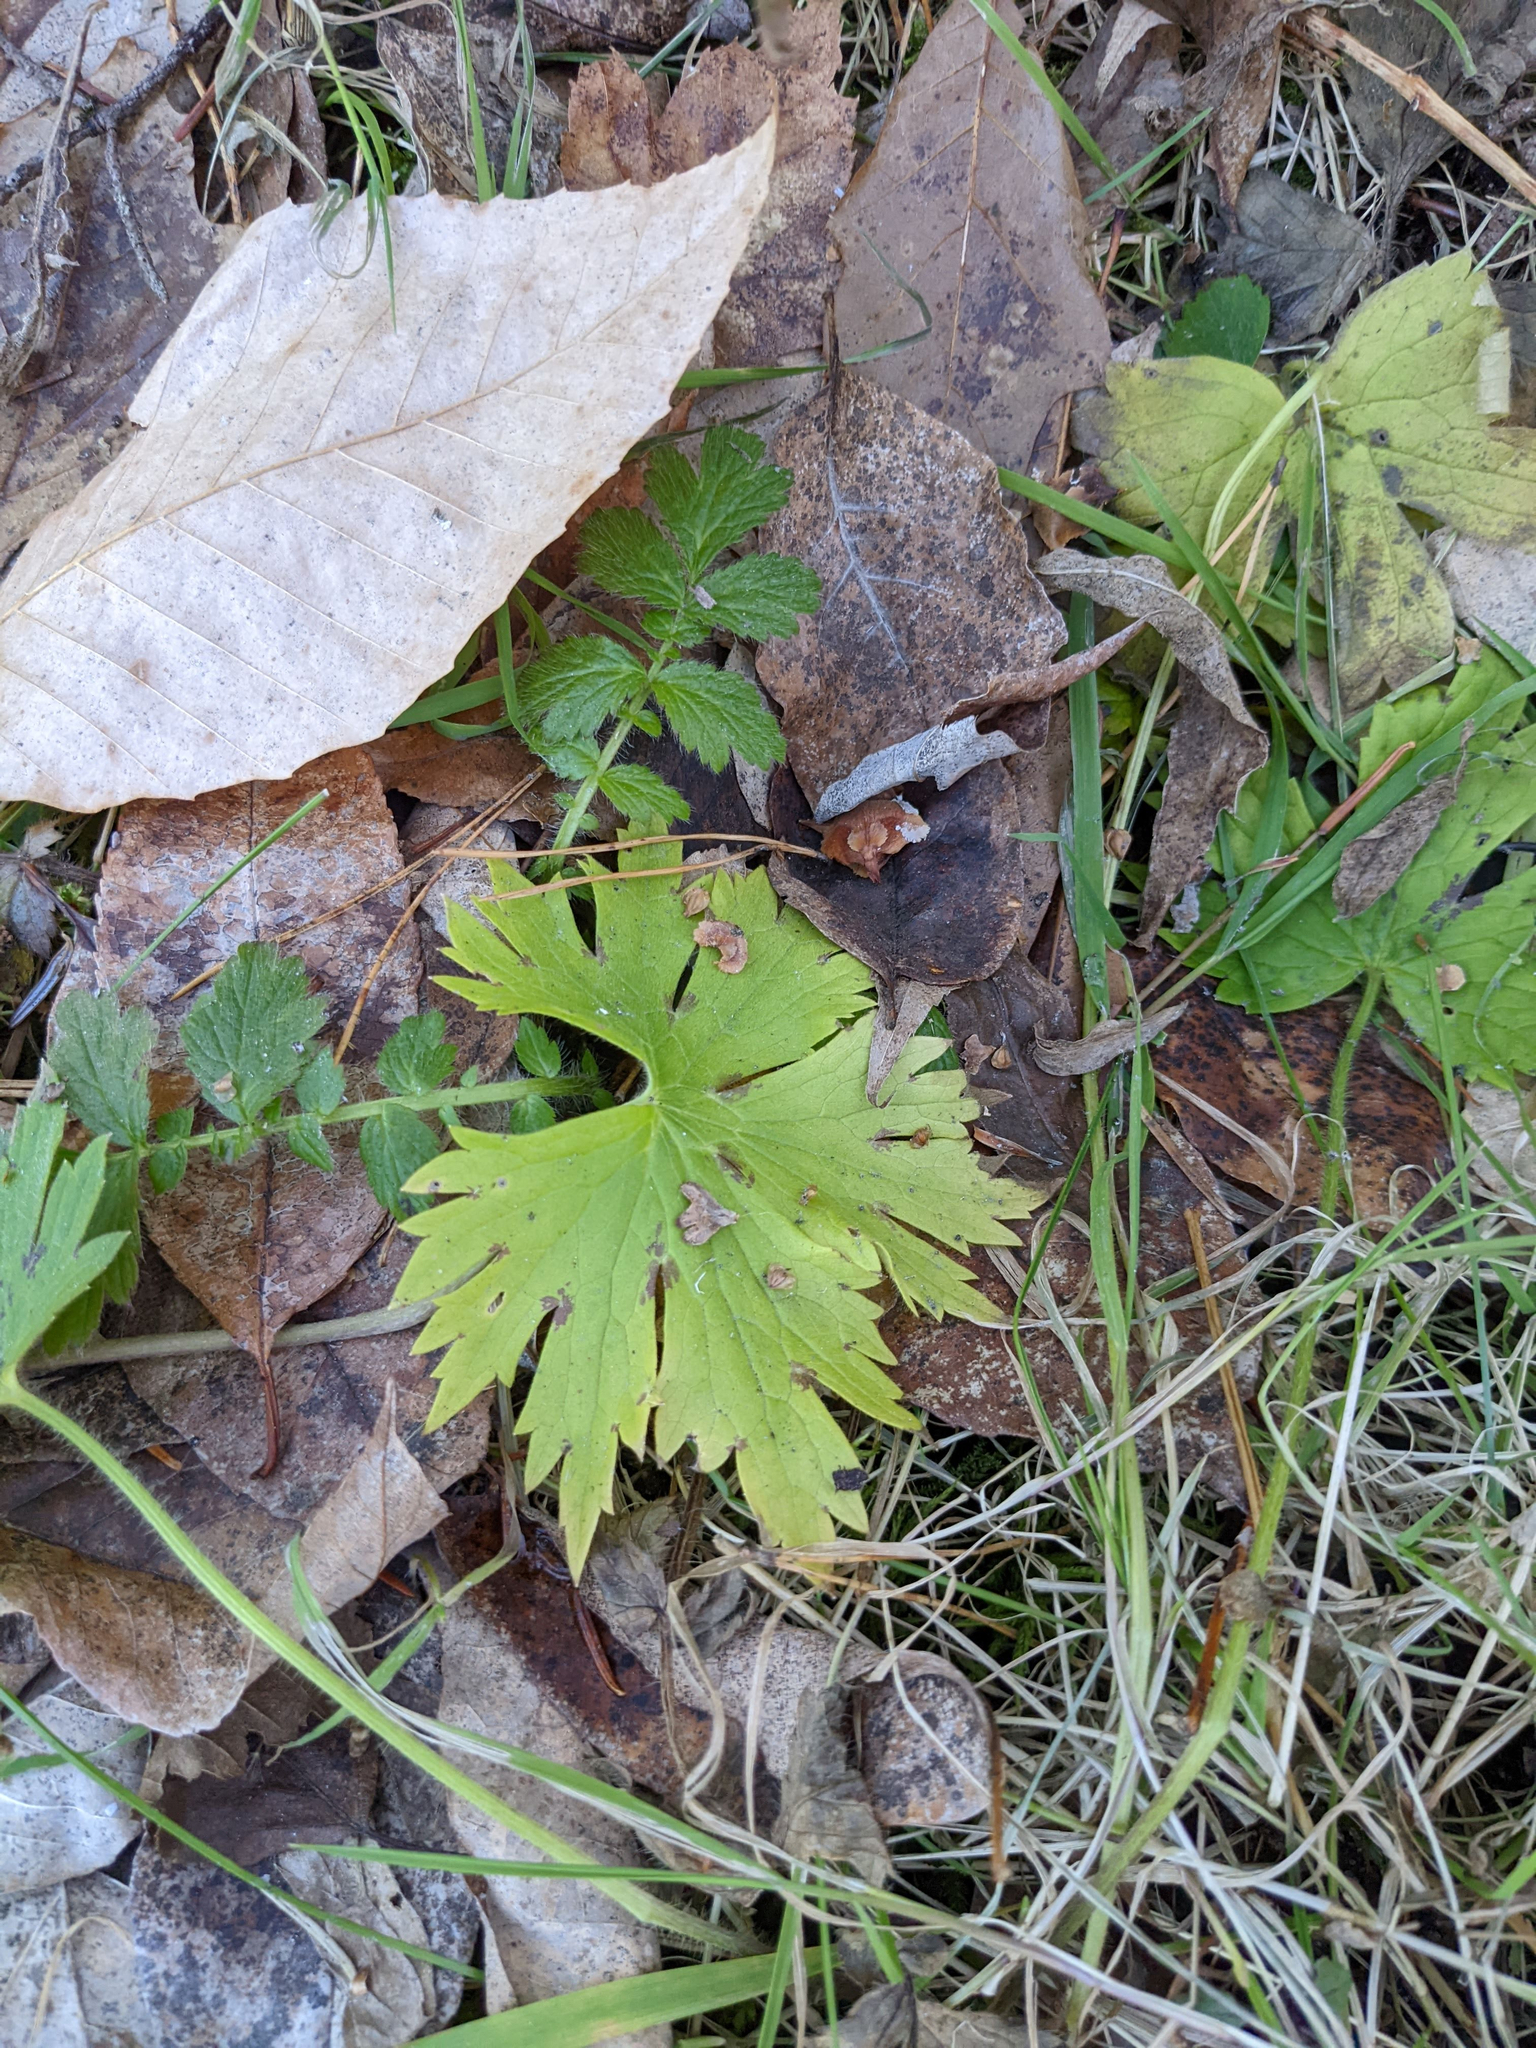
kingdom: Plantae
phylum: Tracheophyta
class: Magnoliopsida
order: Fagales
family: Fagaceae
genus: Fagus
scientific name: Fagus grandifolia
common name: American beech
